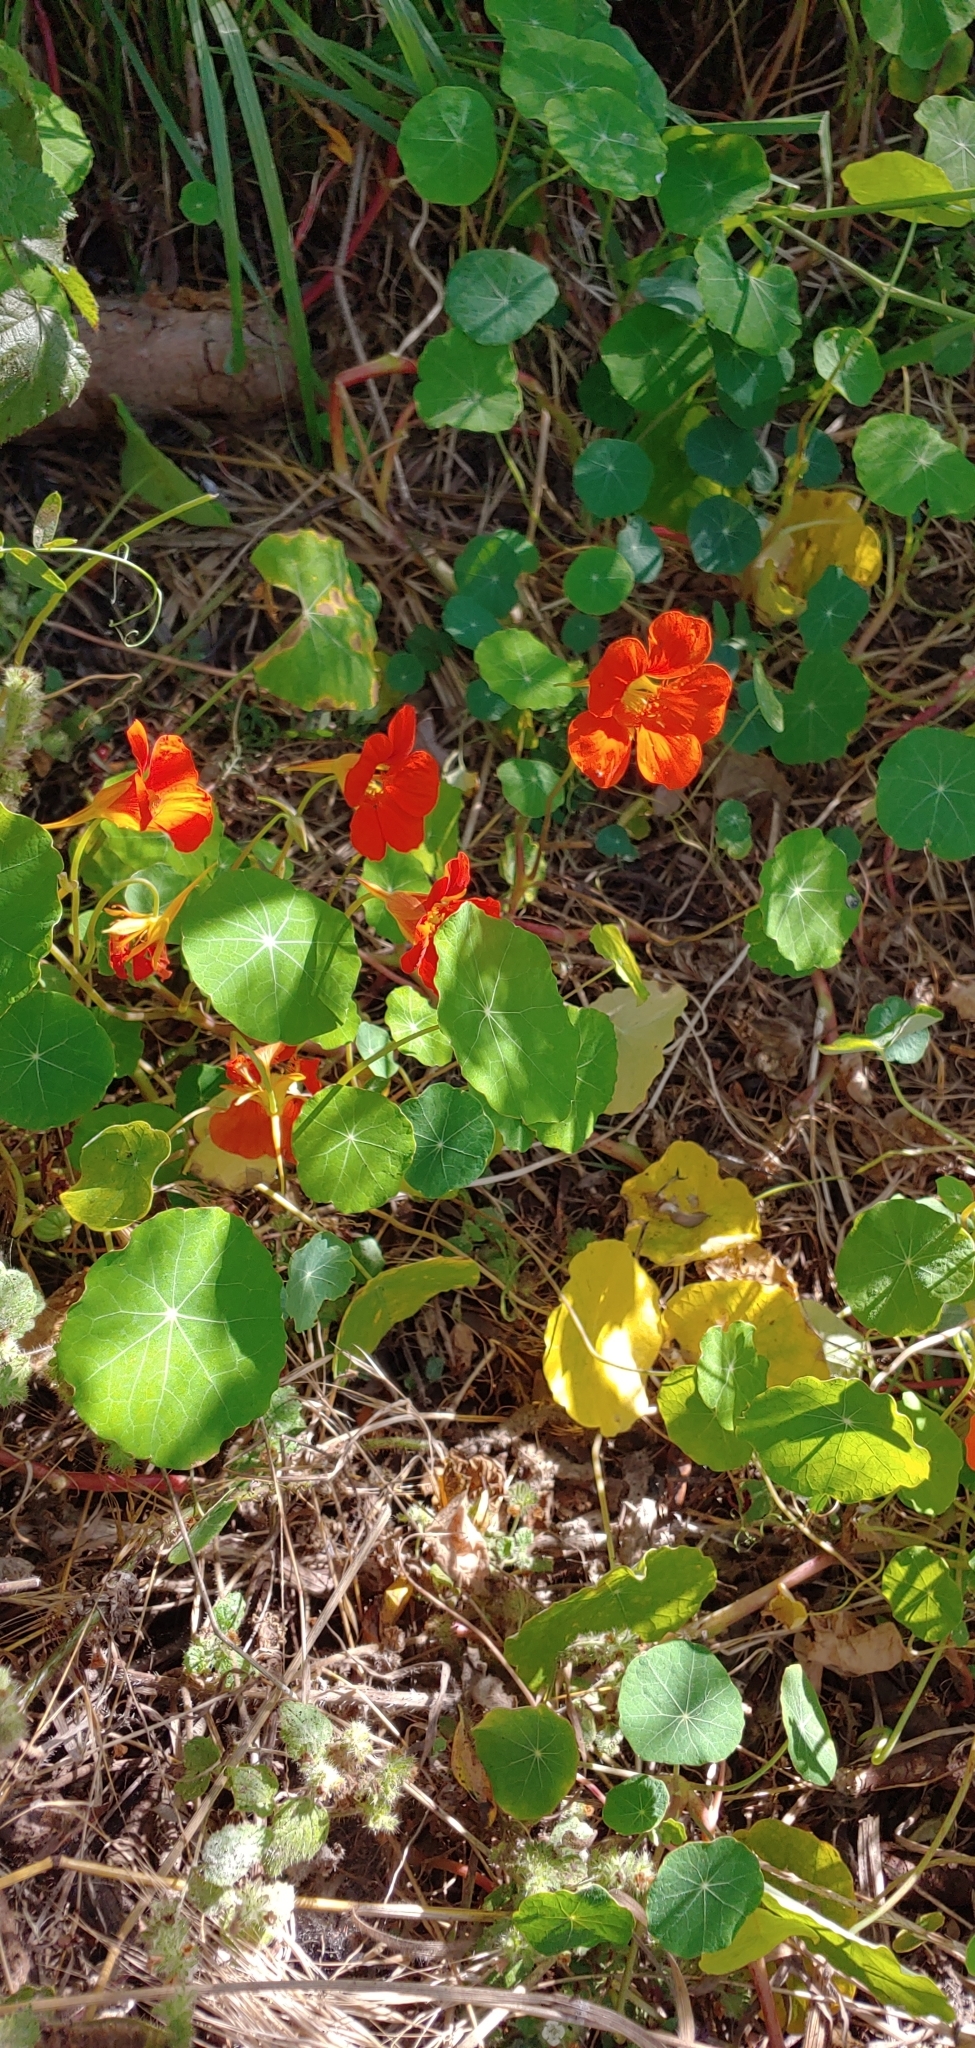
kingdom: Plantae
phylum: Tracheophyta
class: Magnoliopsida
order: Brassicales
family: Tropaeolaceae
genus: Tropaeolum
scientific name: Tropaeolum majus
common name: Nasturtium
